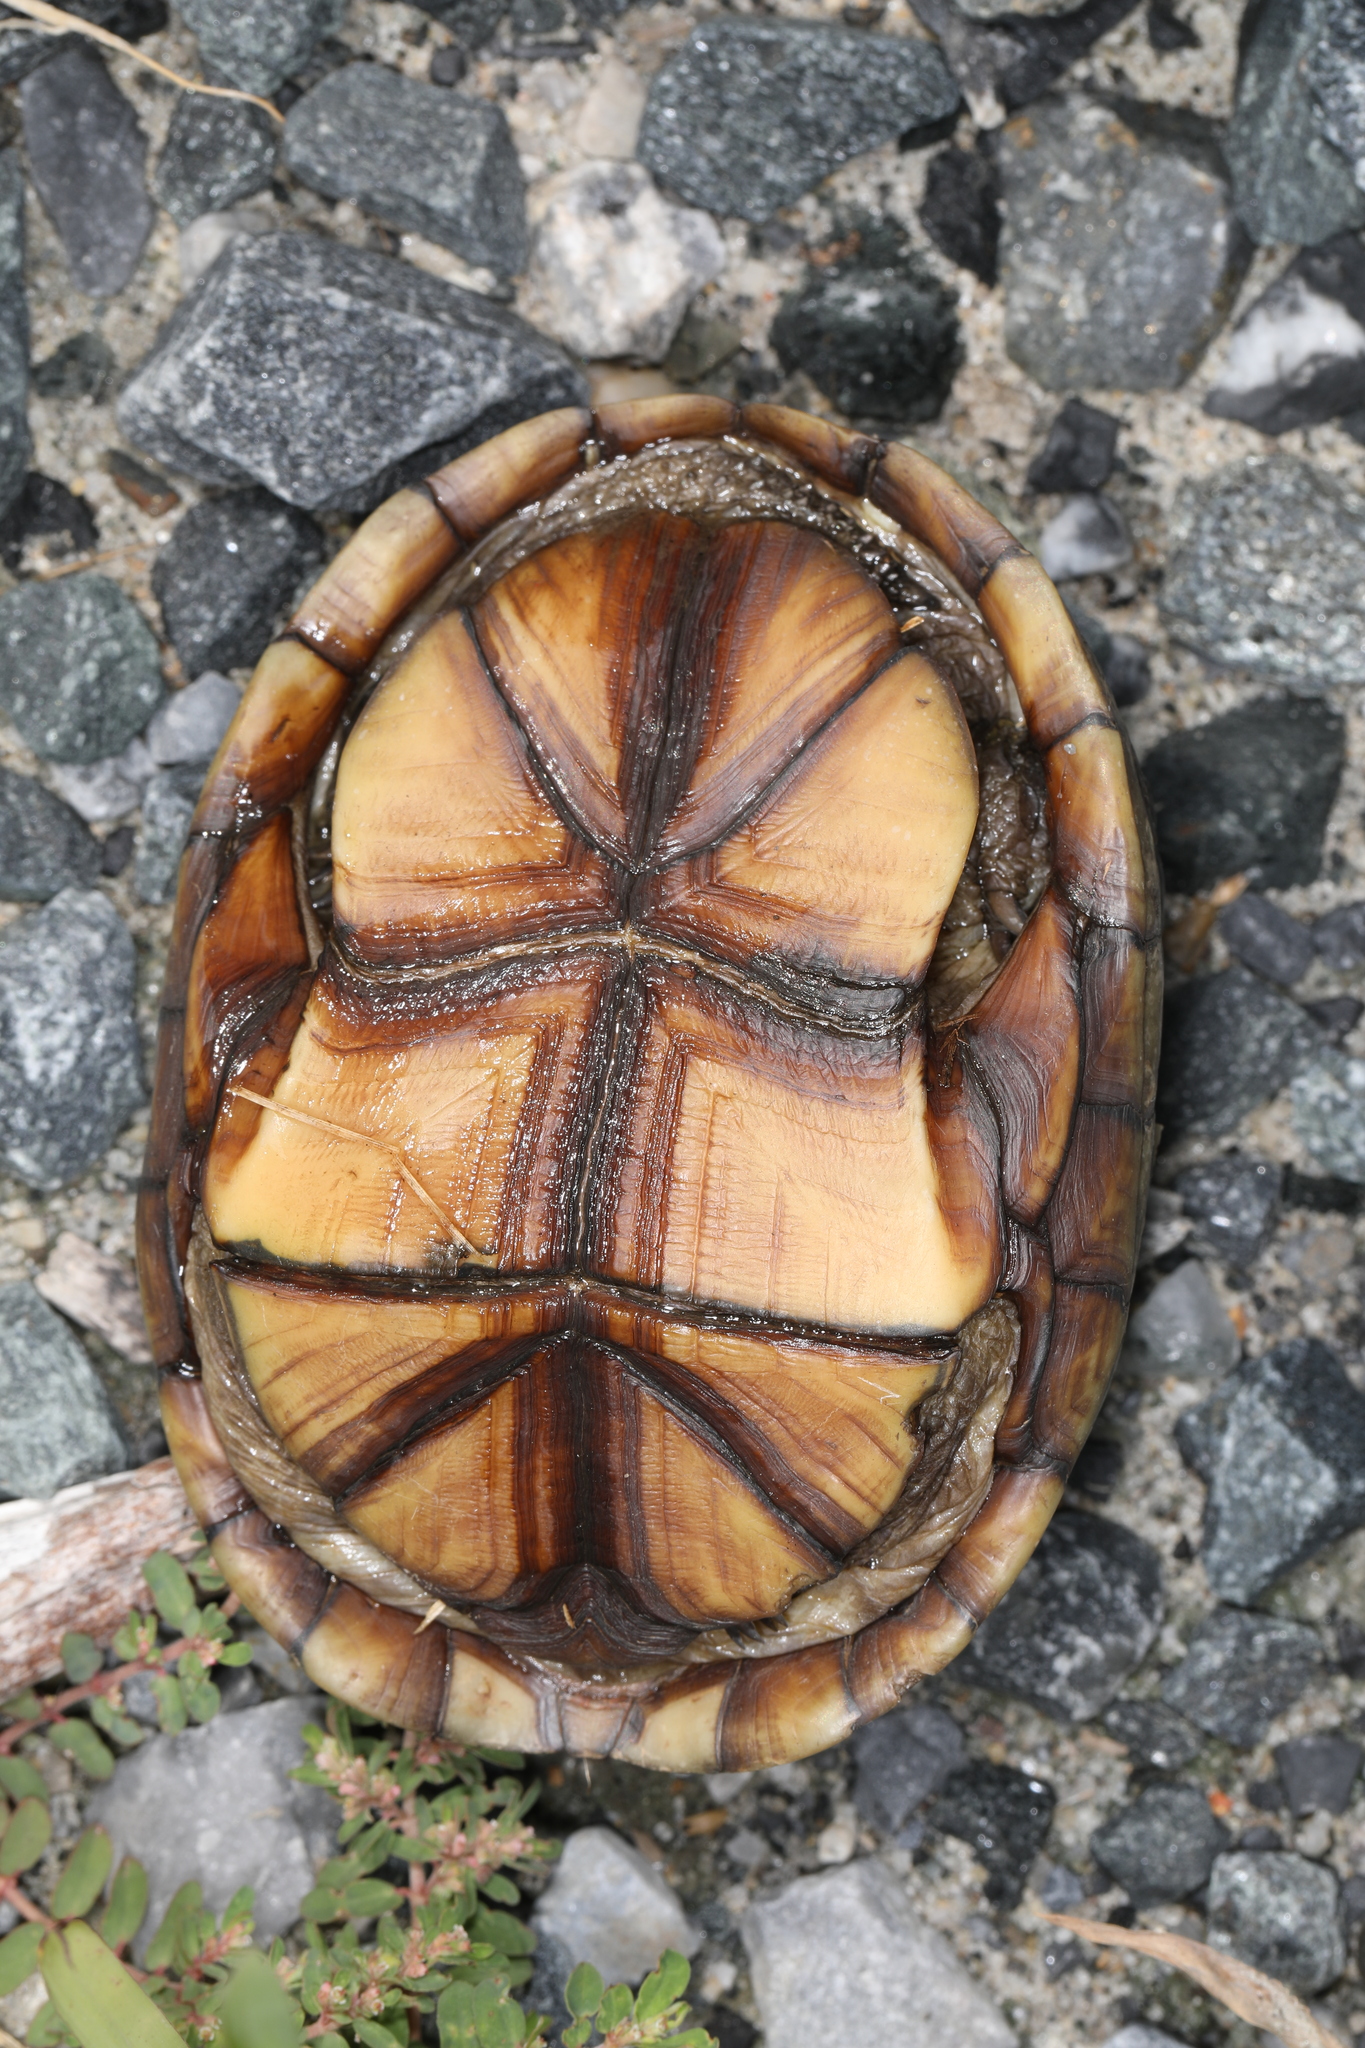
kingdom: Animalia
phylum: Chordata
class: Testudines
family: Kinosternidae
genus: Kinosternon
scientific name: Kinosternon subrubrum
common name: Eastern mud turtle
